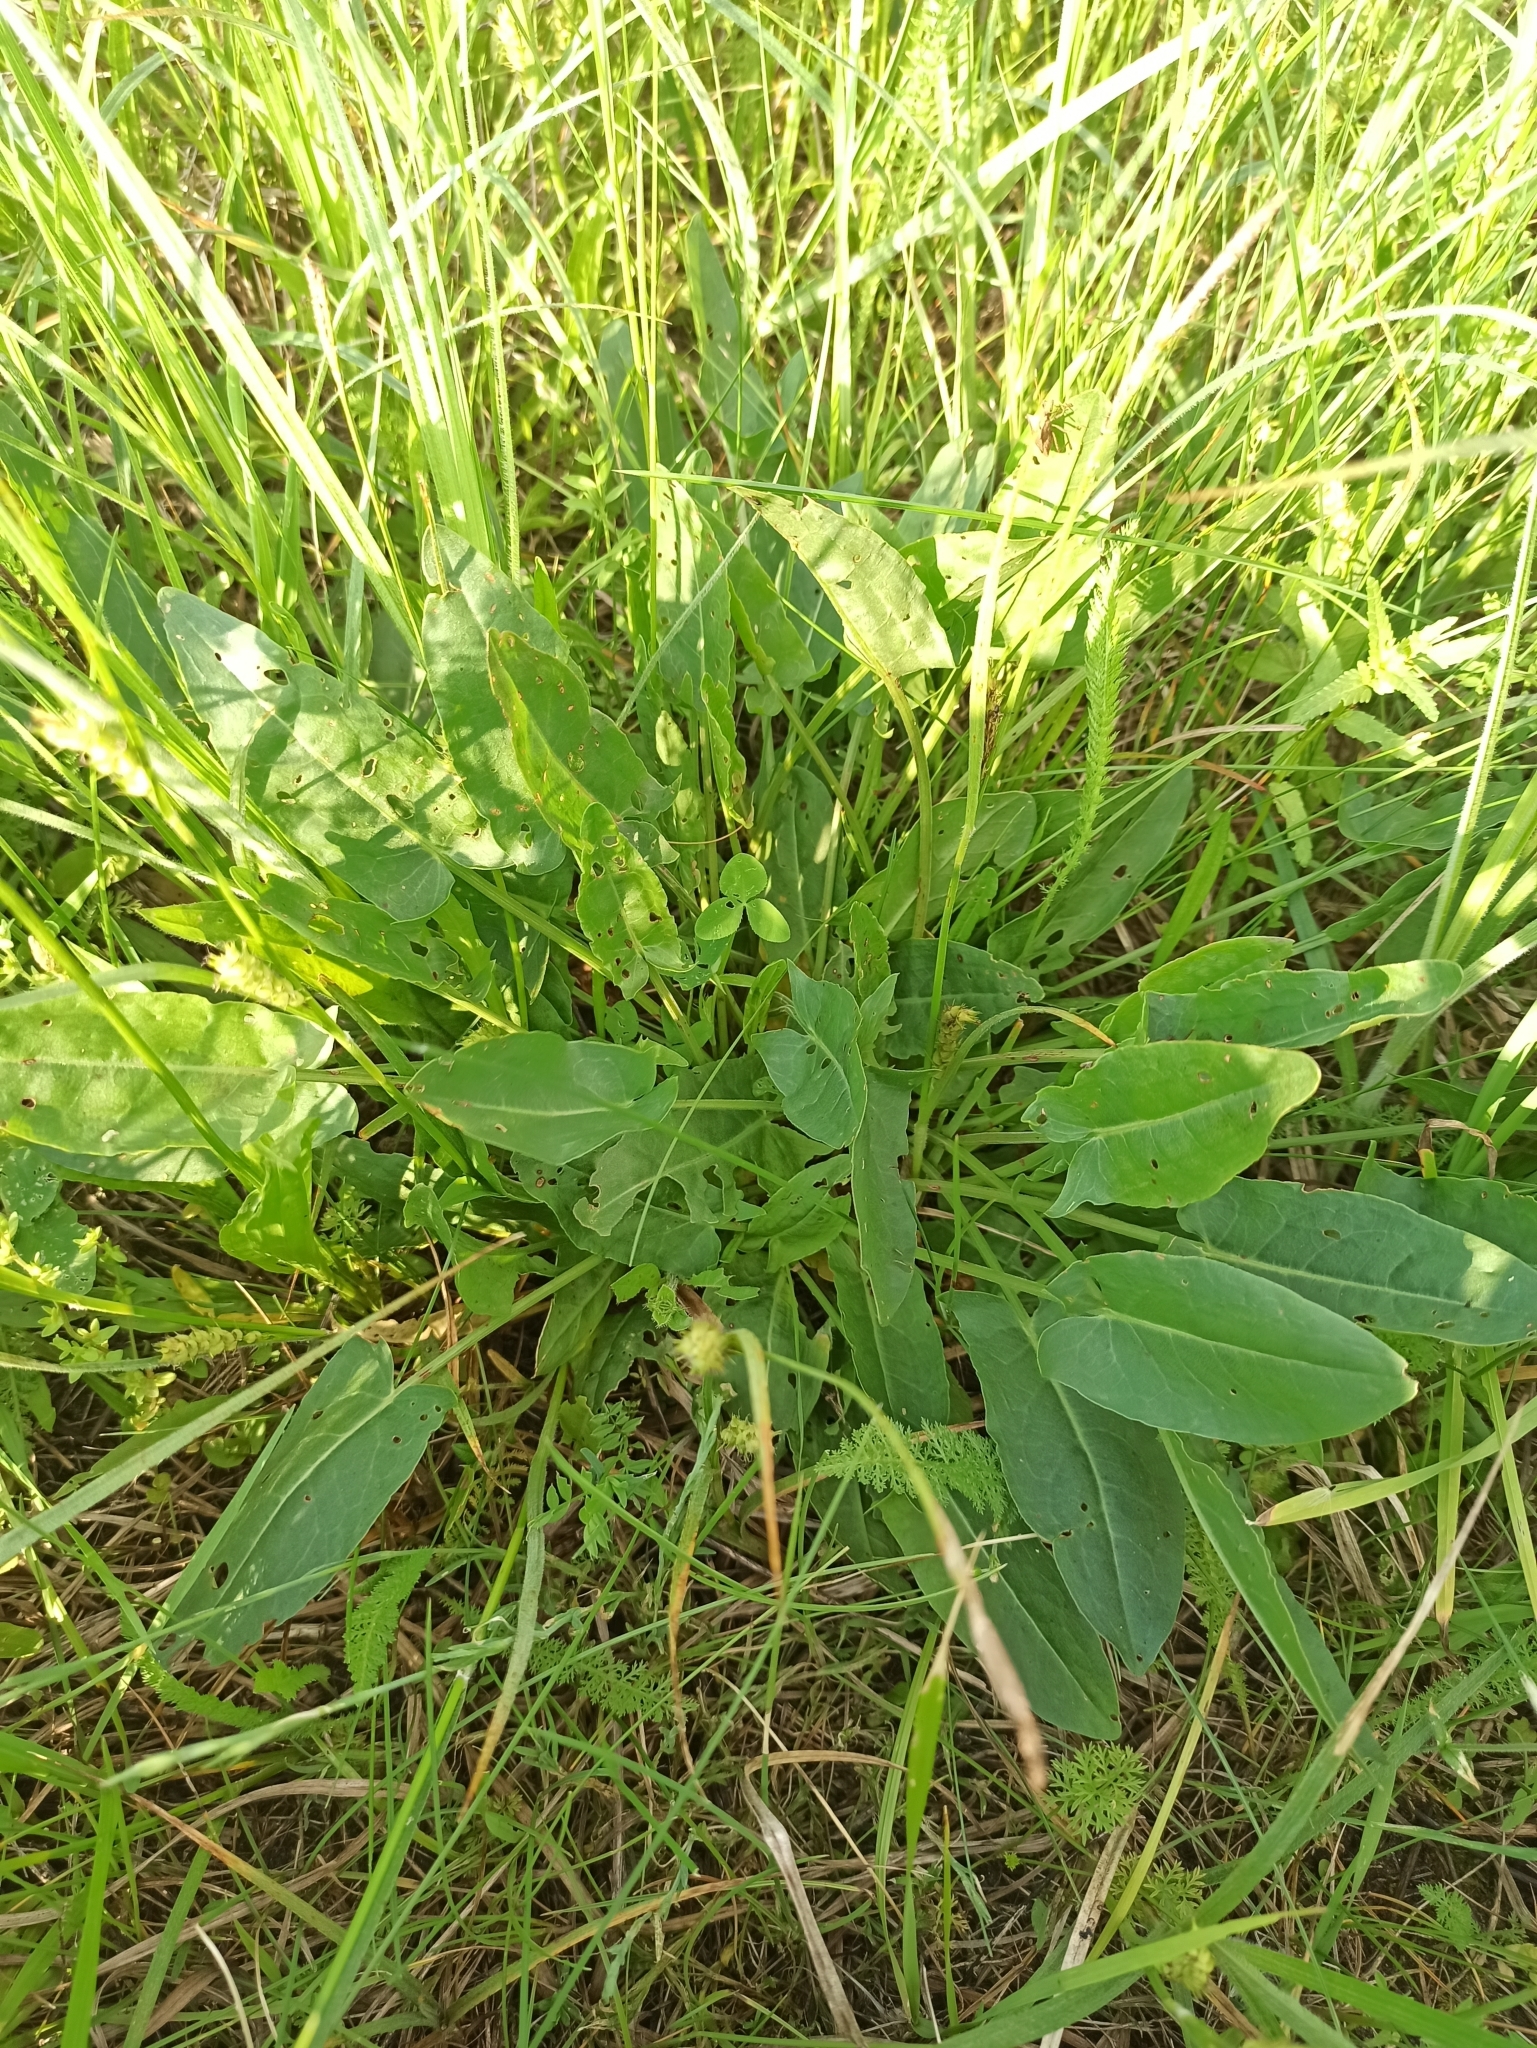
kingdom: Plantae
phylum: Tracheophyta
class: Magnoliopsida
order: Caryophyllales
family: Polygonaceae
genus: Rumex
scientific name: Rumex acetosa
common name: Garden sorrel
